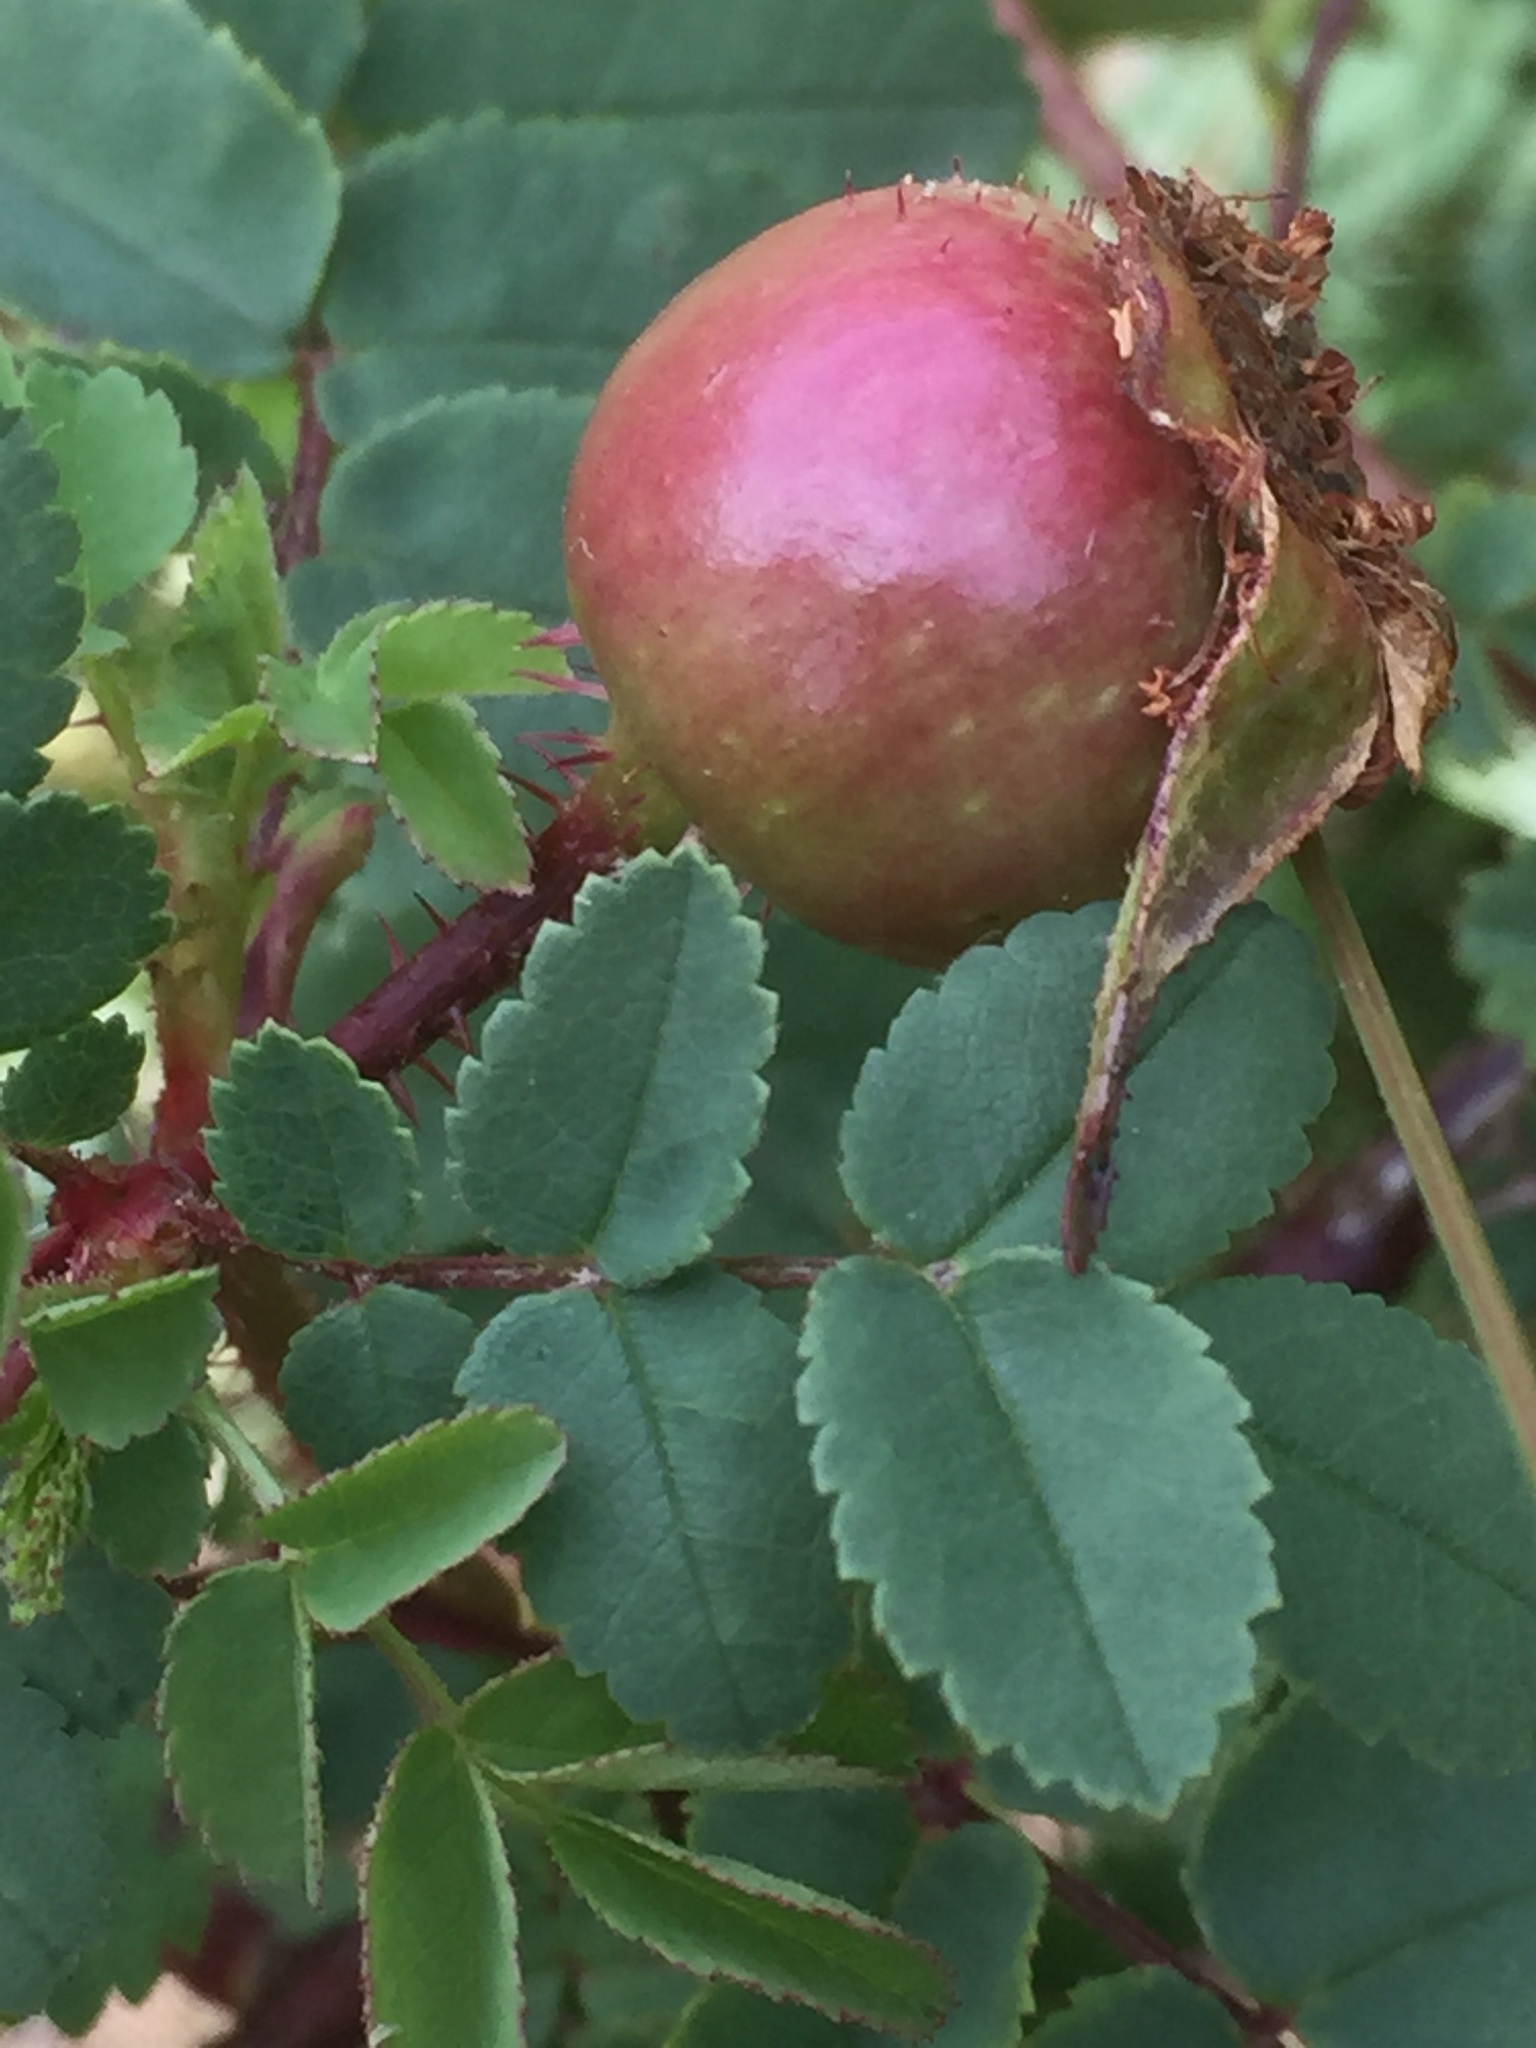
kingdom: Plantae
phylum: Tracheophyta
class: Magnoliopsida
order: Rosales
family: Rosaceae
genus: Rosa
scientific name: Rosa spinosissima
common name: Burnet rose
